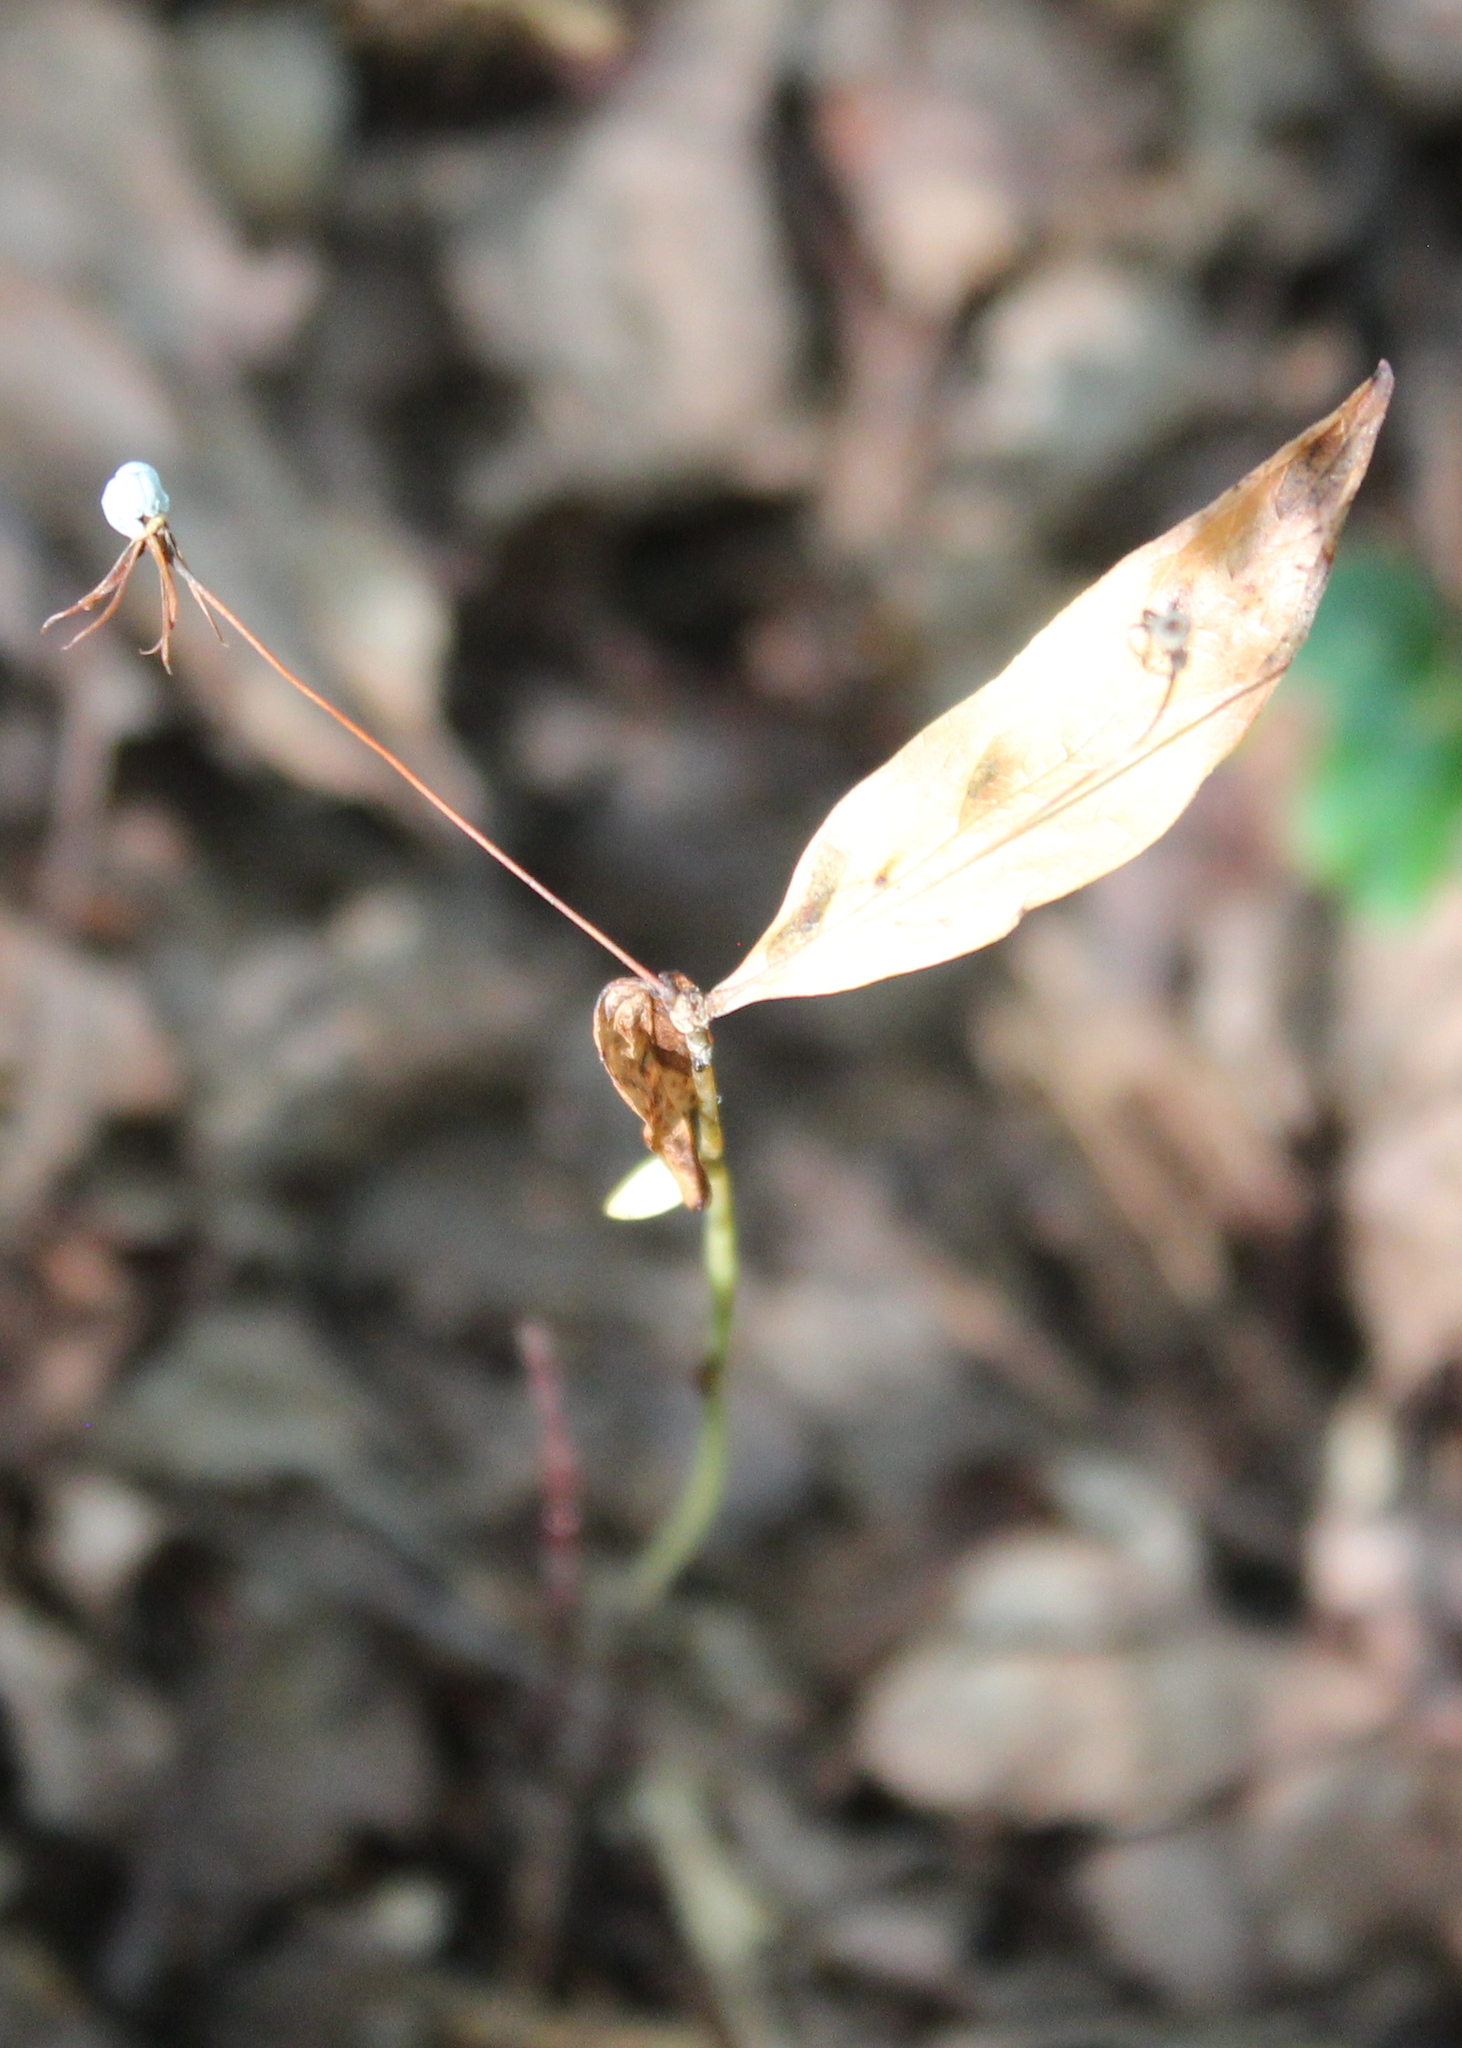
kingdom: Plantae
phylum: Tracheophyta
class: Magnoliopsida
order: Ericales
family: Primulaceae
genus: Lysimachia
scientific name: Lysimachia borealis
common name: American starflower
